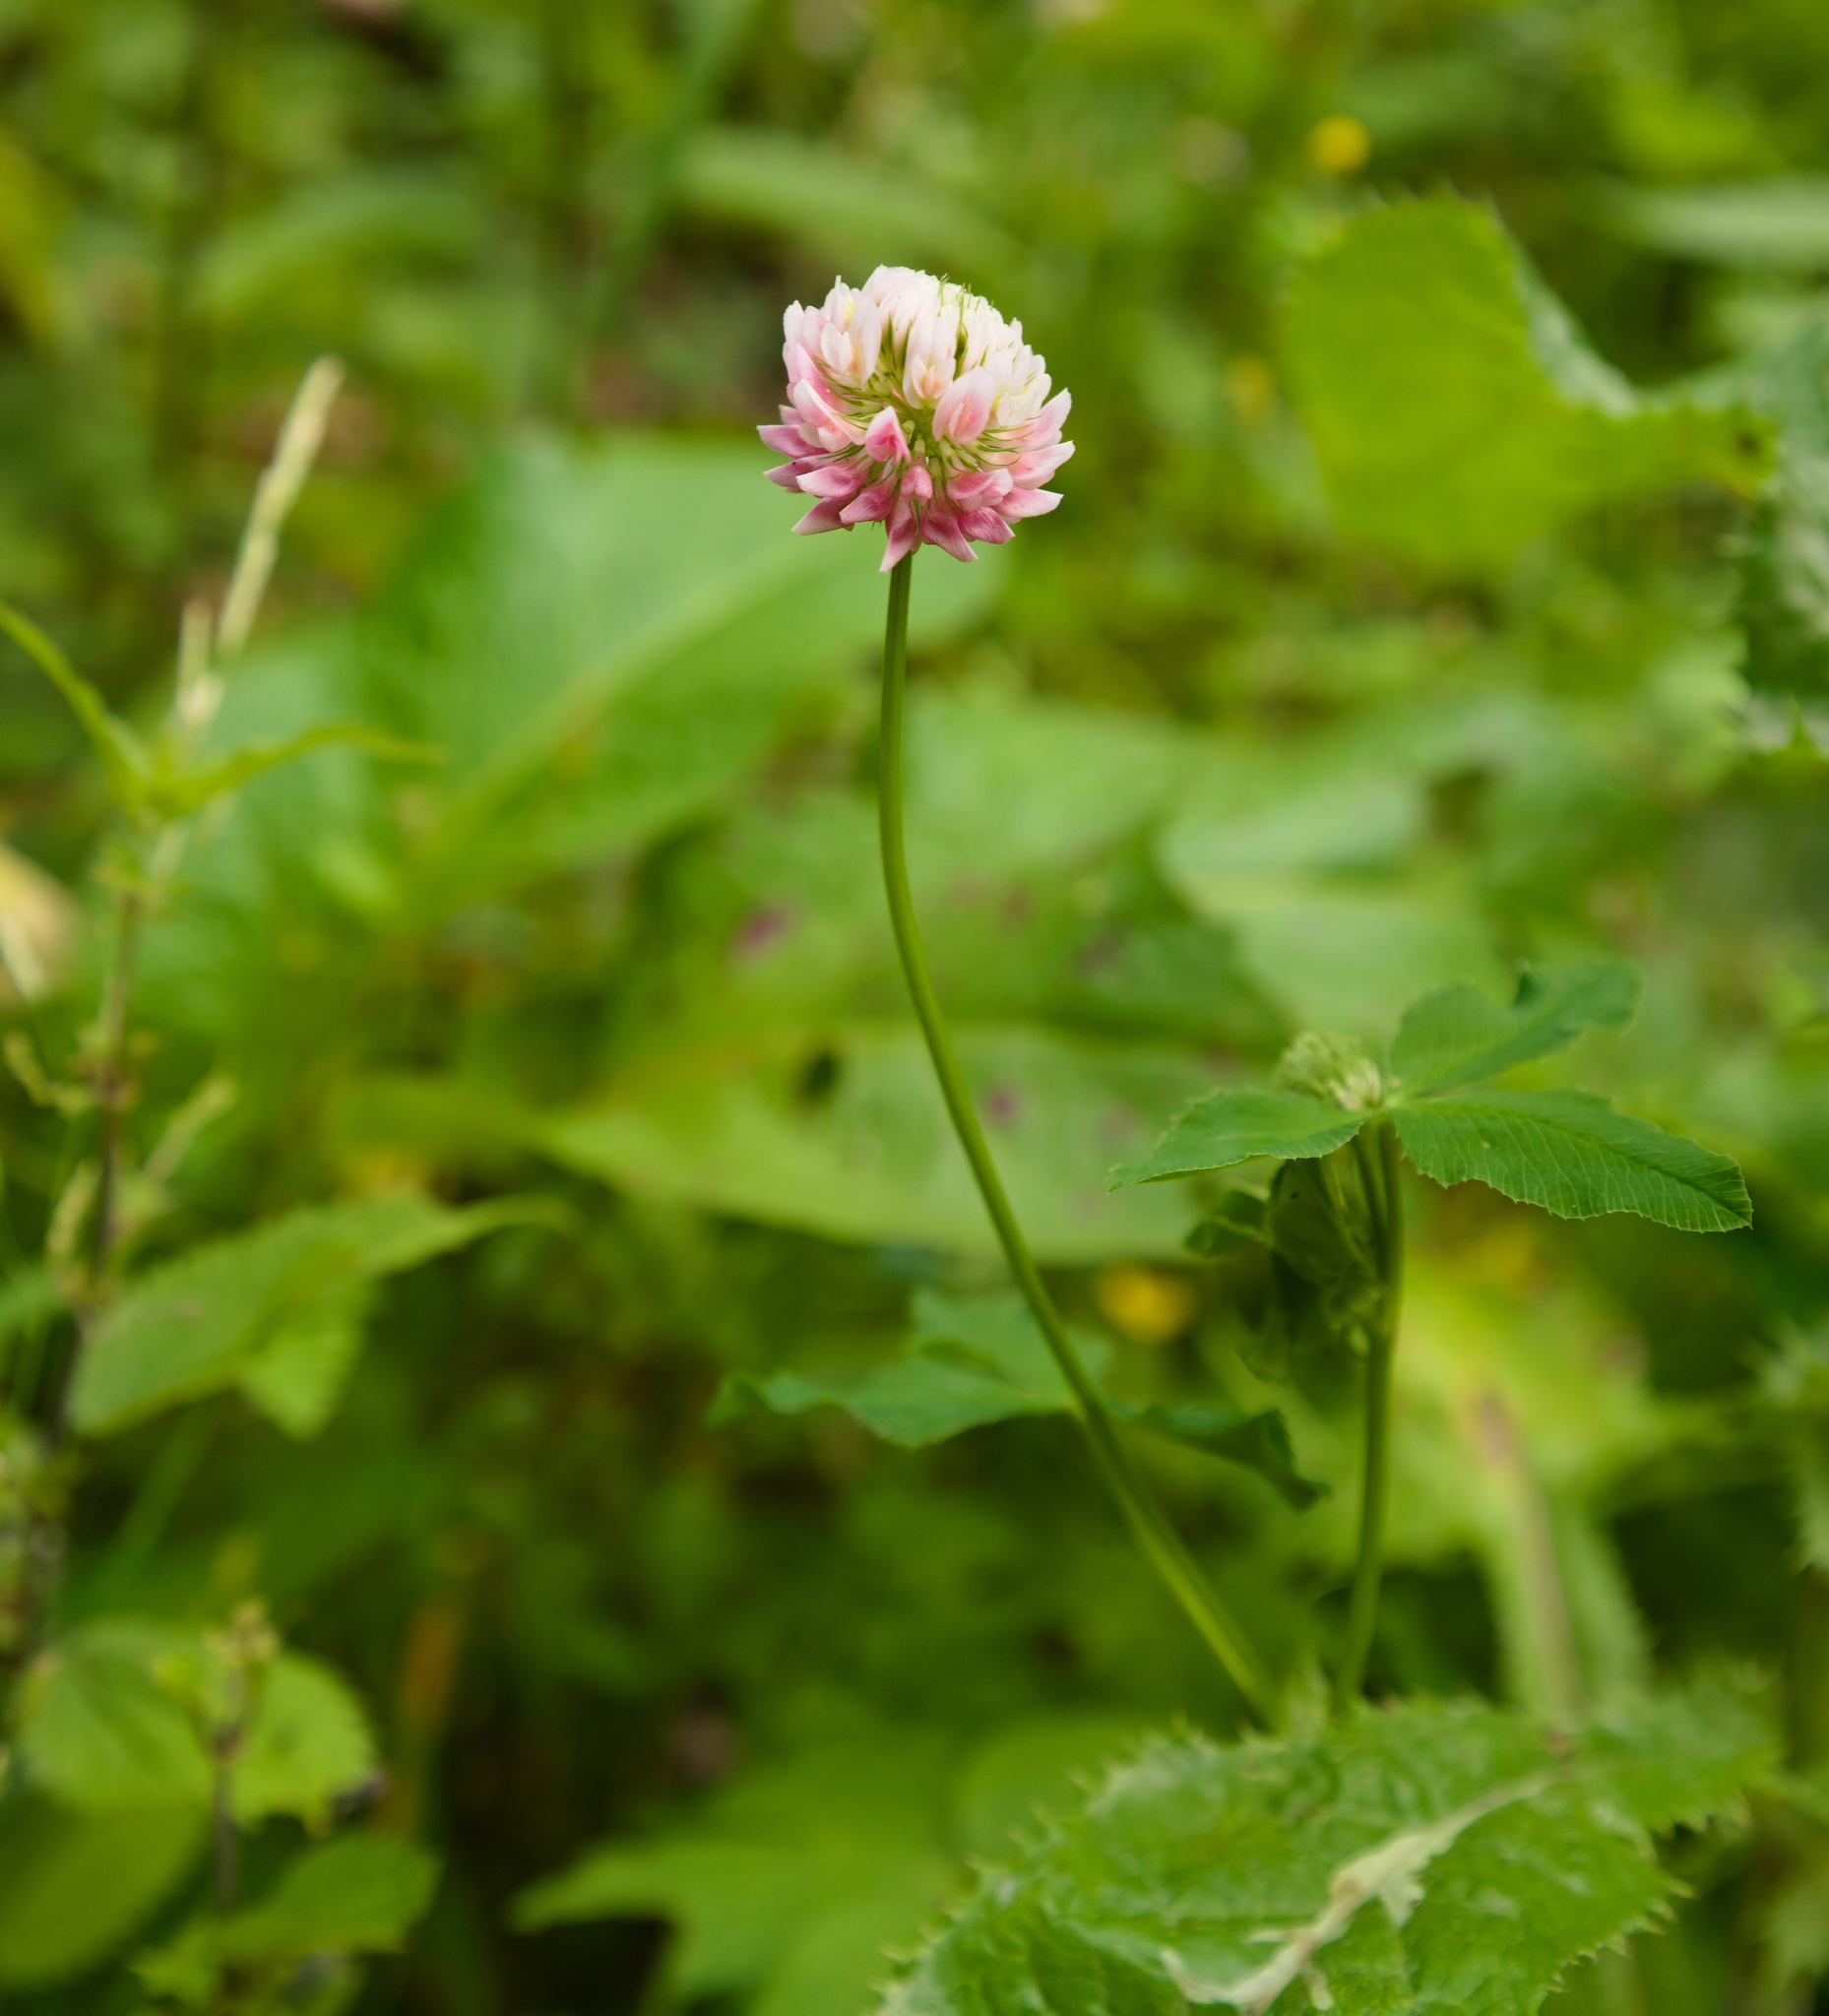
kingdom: Plantae
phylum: Tracheophyta
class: Magnoliopsida
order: Fabales
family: Fabaceae
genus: Trifolium
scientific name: Trifolium hybridum
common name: Alsike clover
